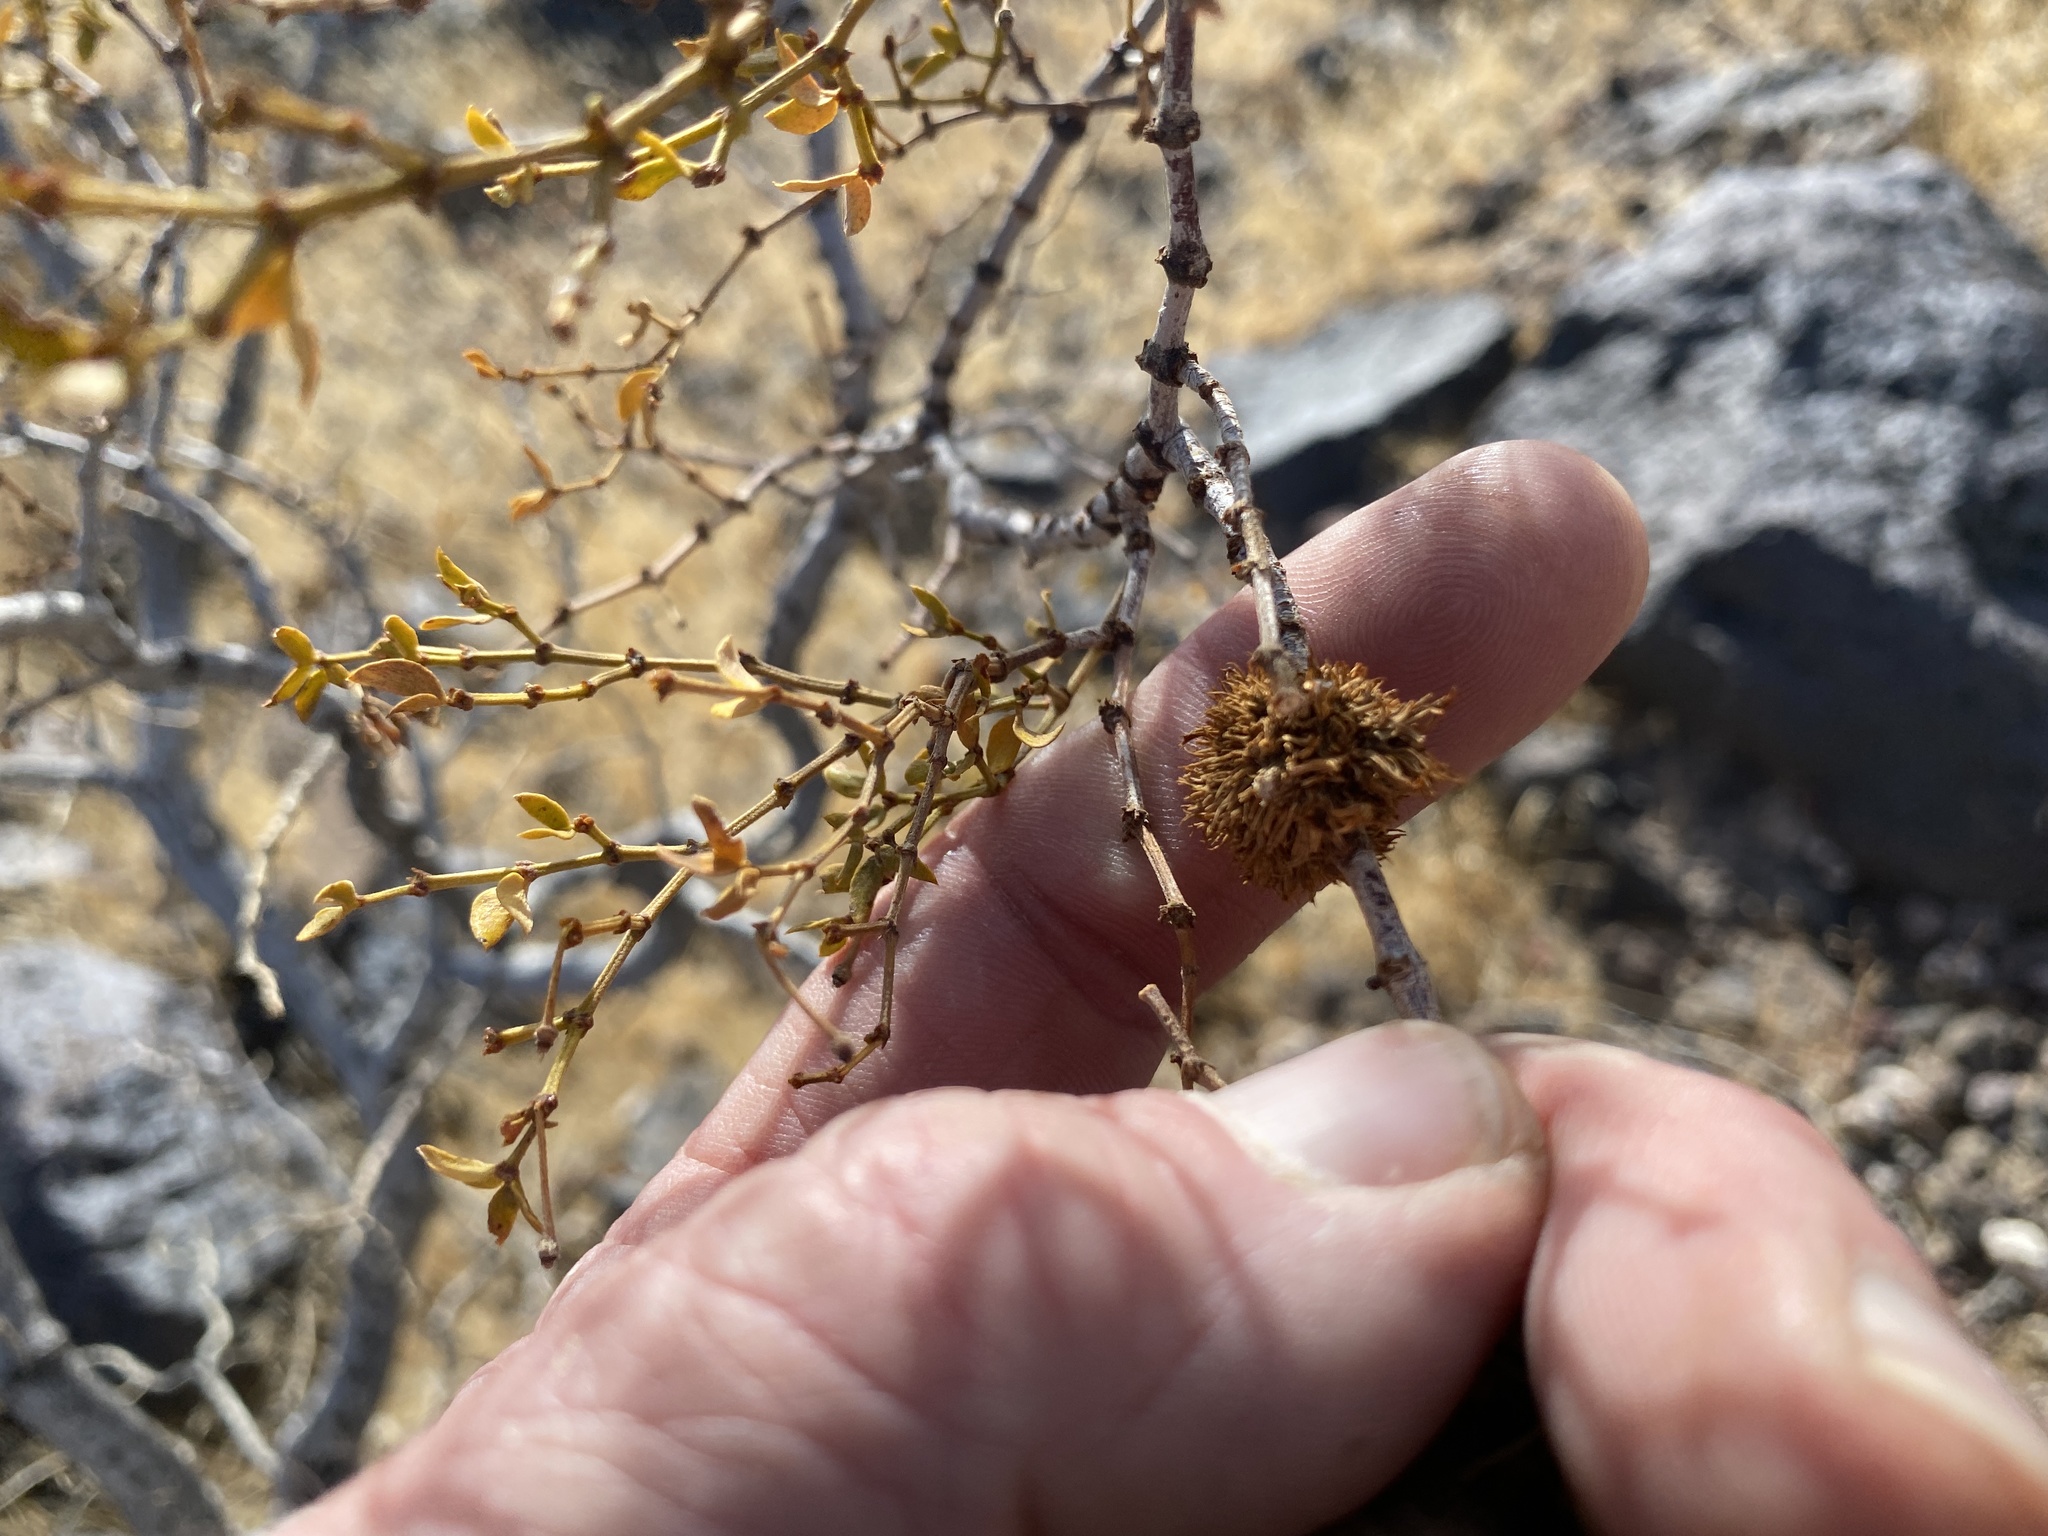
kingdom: Animalia
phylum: Arthropoda
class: Insecta
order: Diptera
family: Cecidomyiidae
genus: Asphondylia
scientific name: Asphondylia auripila
